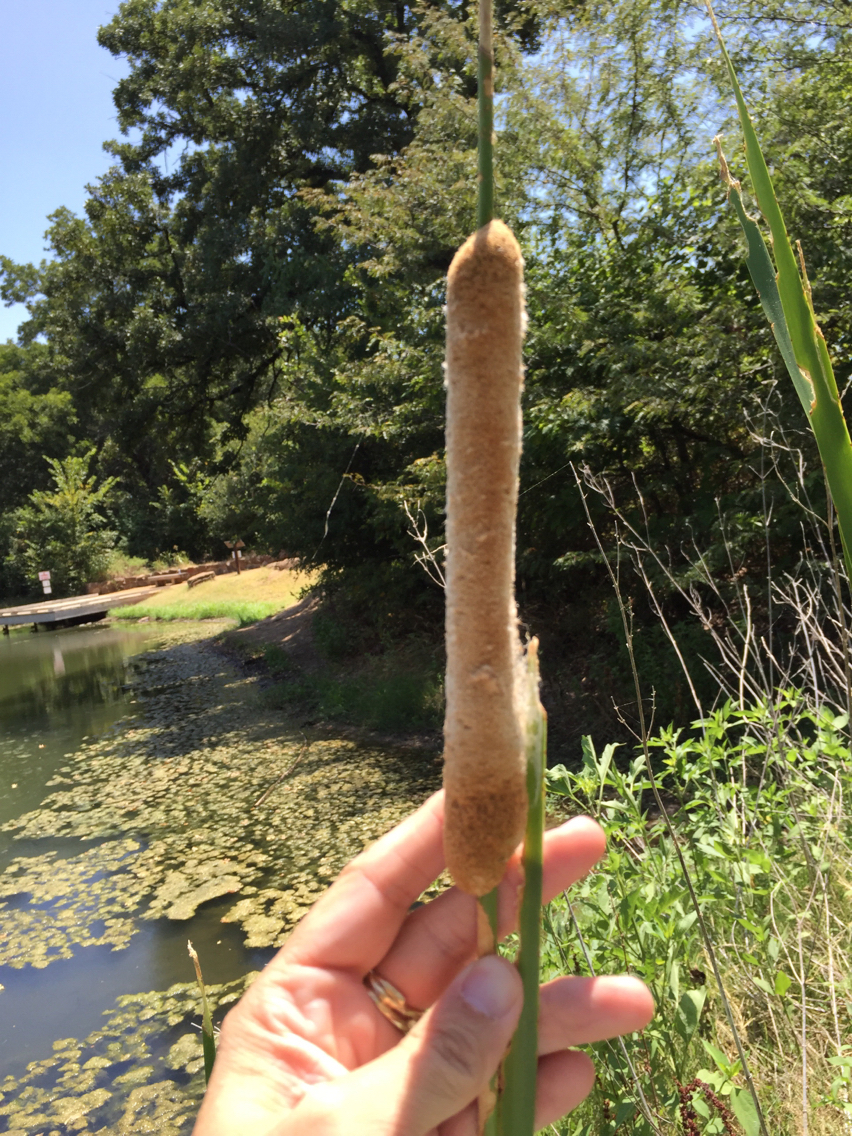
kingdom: Plantae
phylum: Tracheophyta
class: Liliopsida
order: Poales
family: Typhaceae
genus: Typha
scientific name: Typha domingensis
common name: Southern cattail
